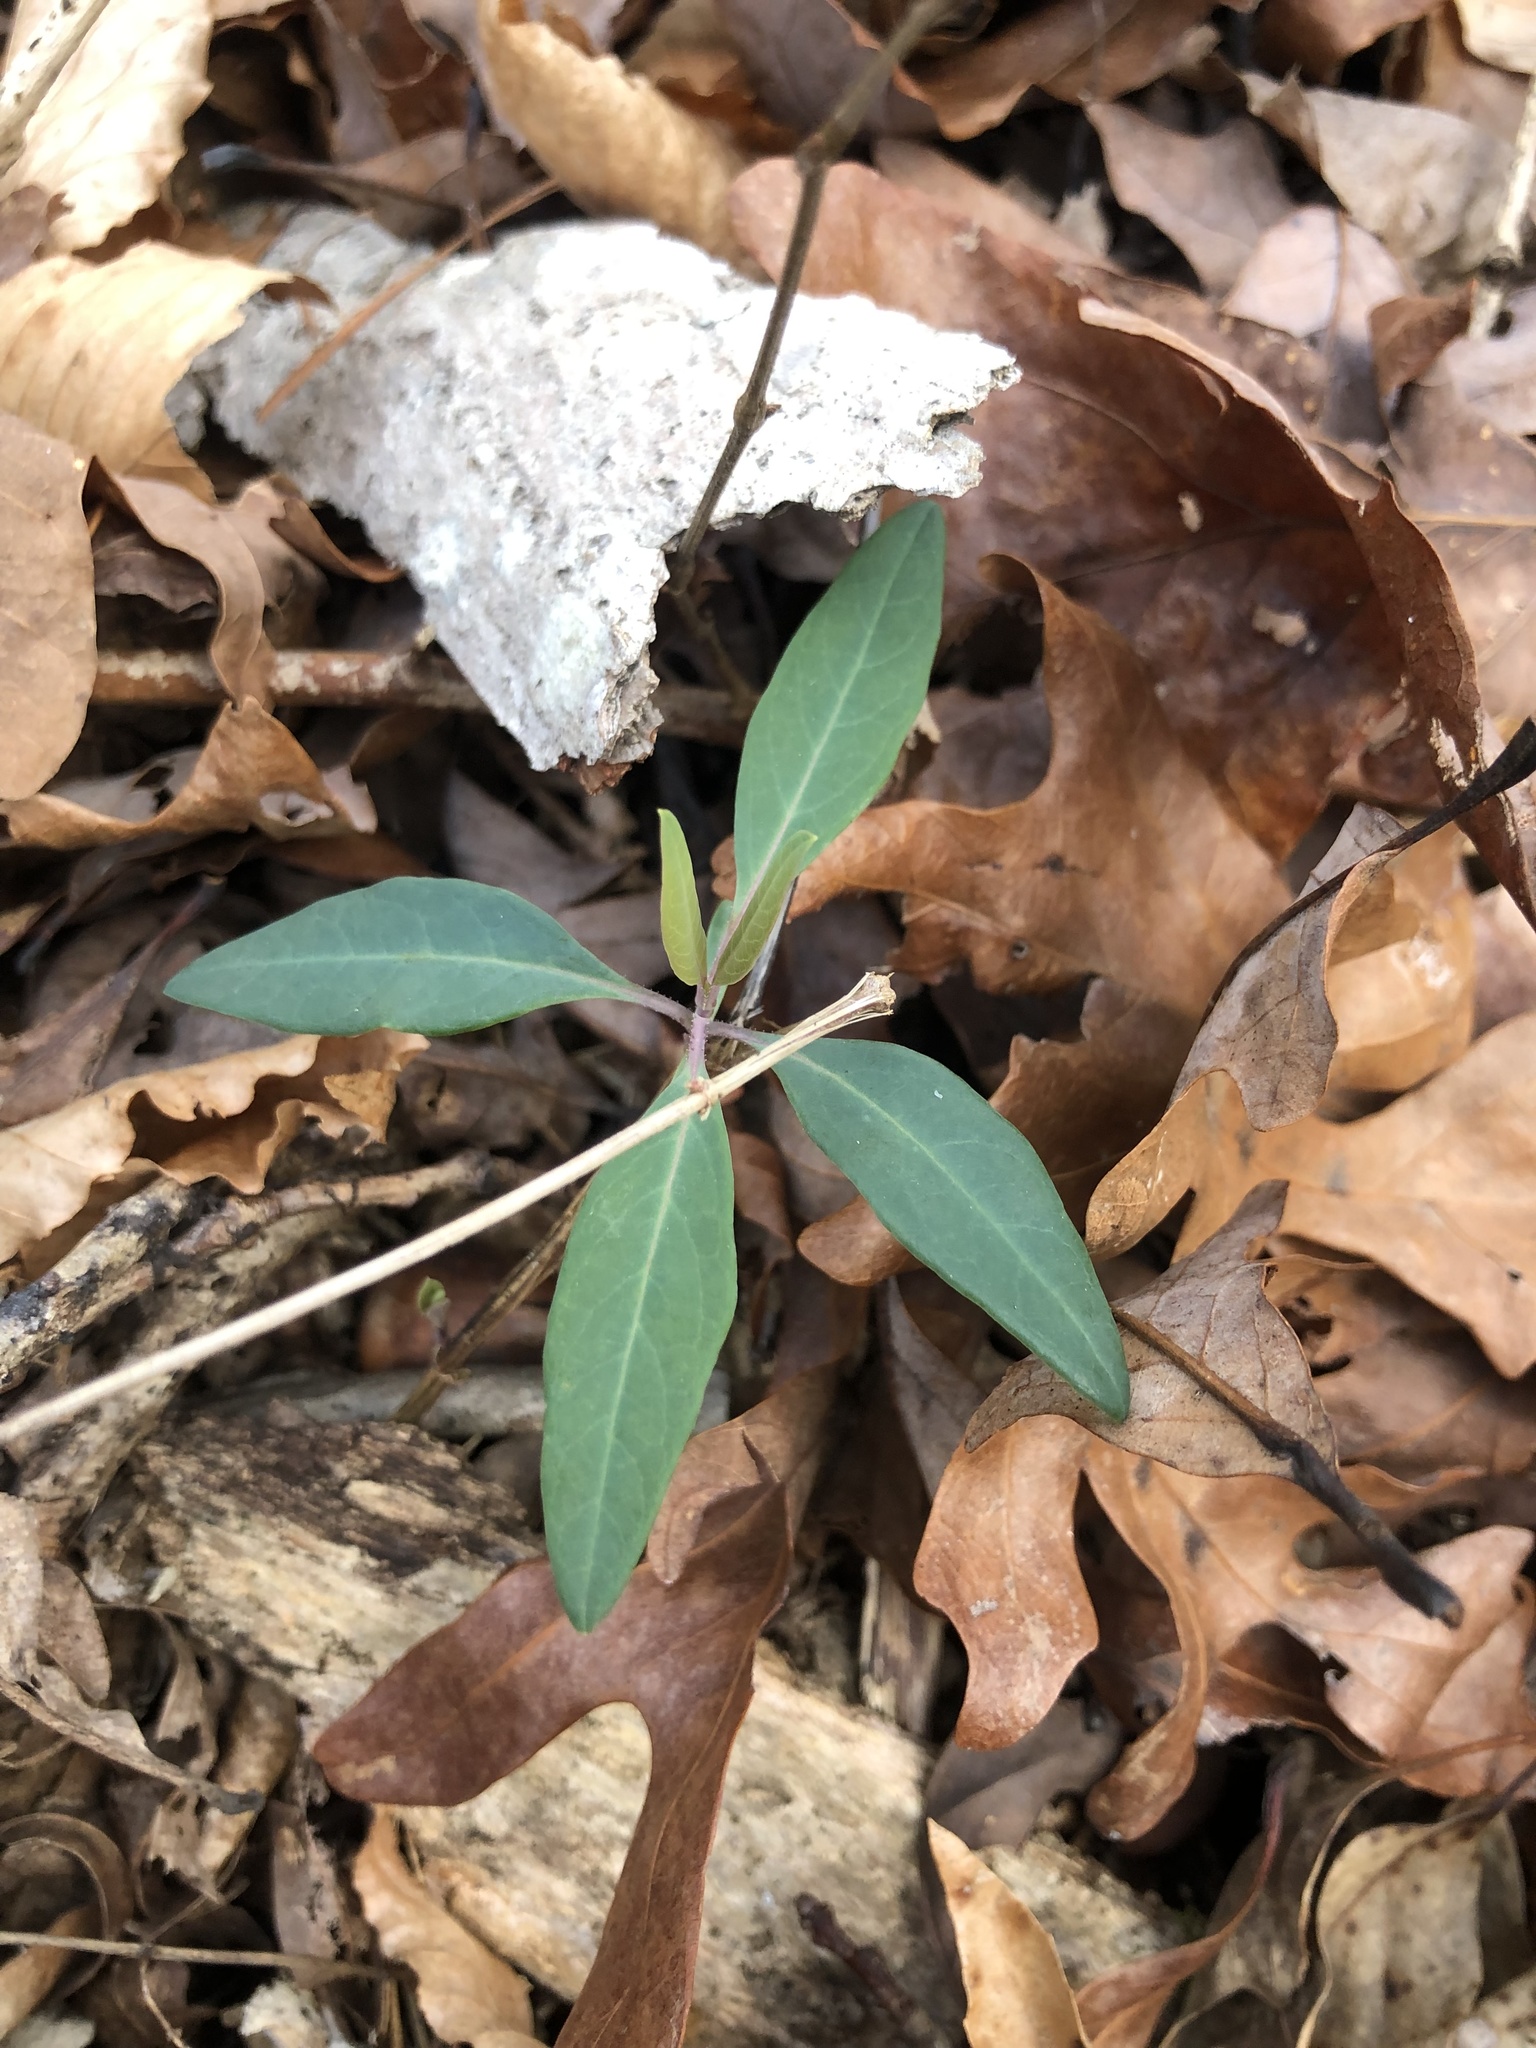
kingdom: Plantae
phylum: Tracheophyta
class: Magnoliopsida
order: Dipsacales
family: Caprifoliaceae
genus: Lonicera
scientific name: Lonicera sempervirens
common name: Coral honeysuckle
